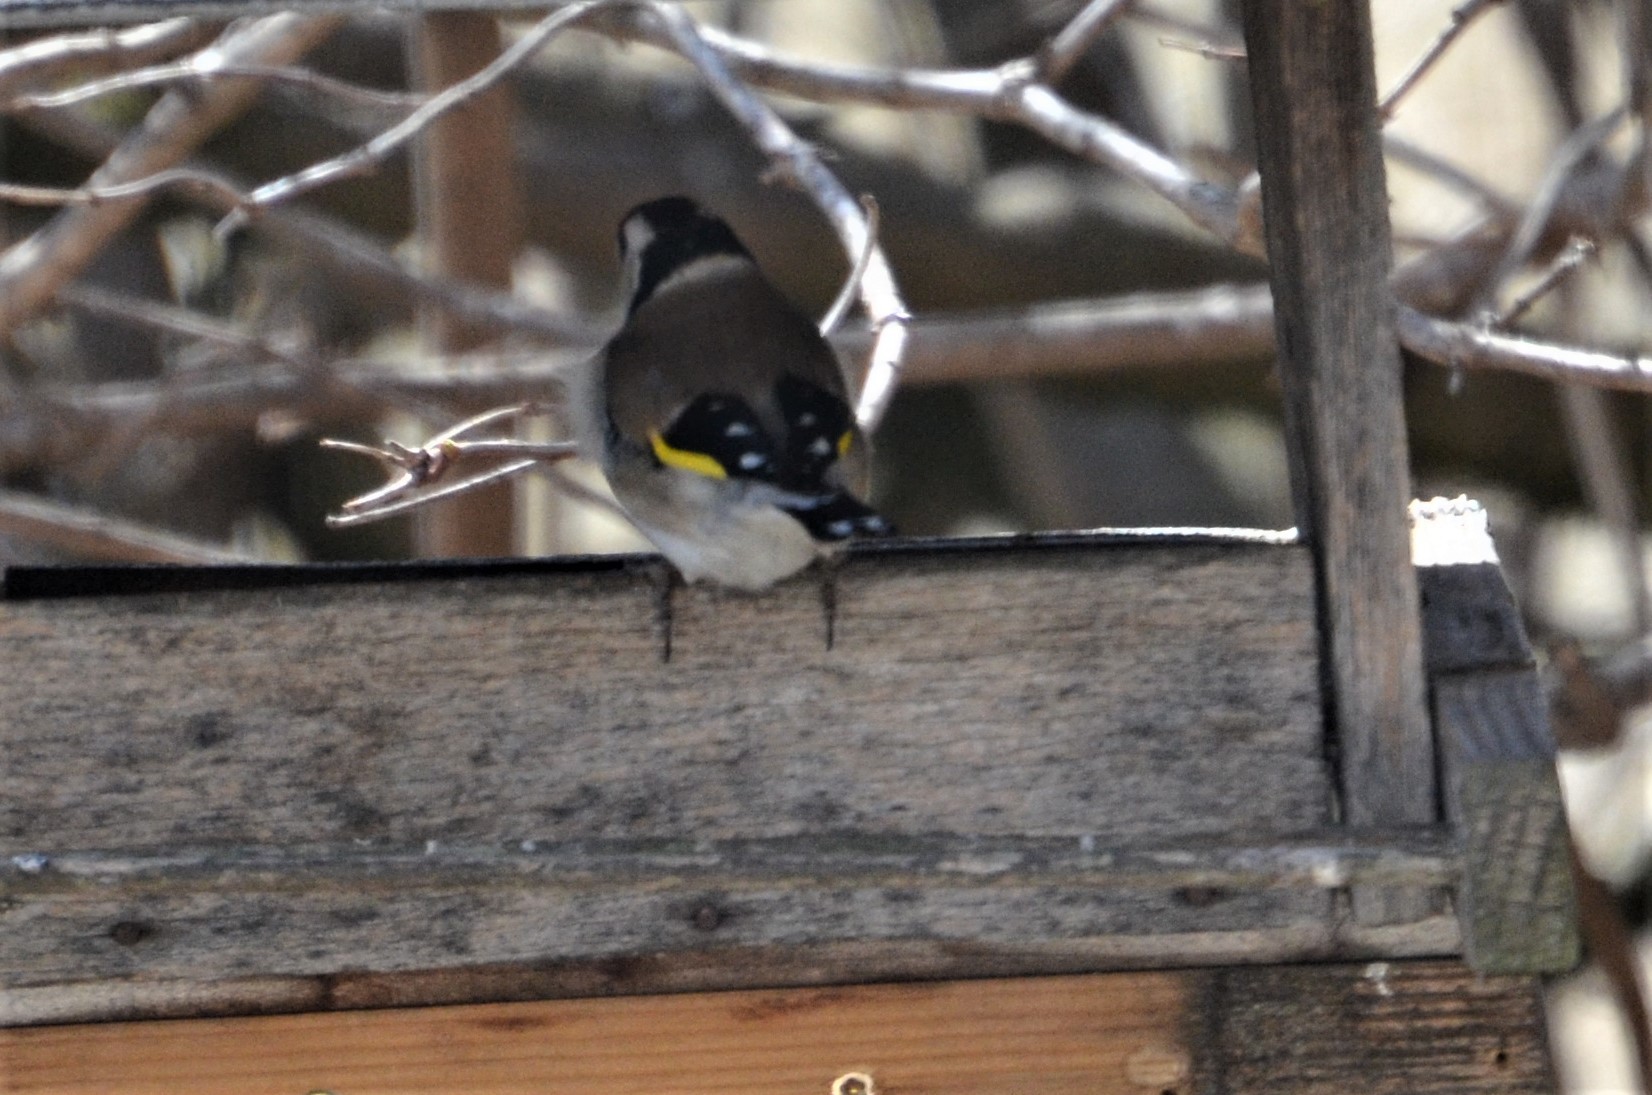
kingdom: Animalia
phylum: Chordata
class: Aves
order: Passeriformes
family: Fringillidae
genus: Carduelis
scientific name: Carduelis carduelis
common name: European goldfinch
